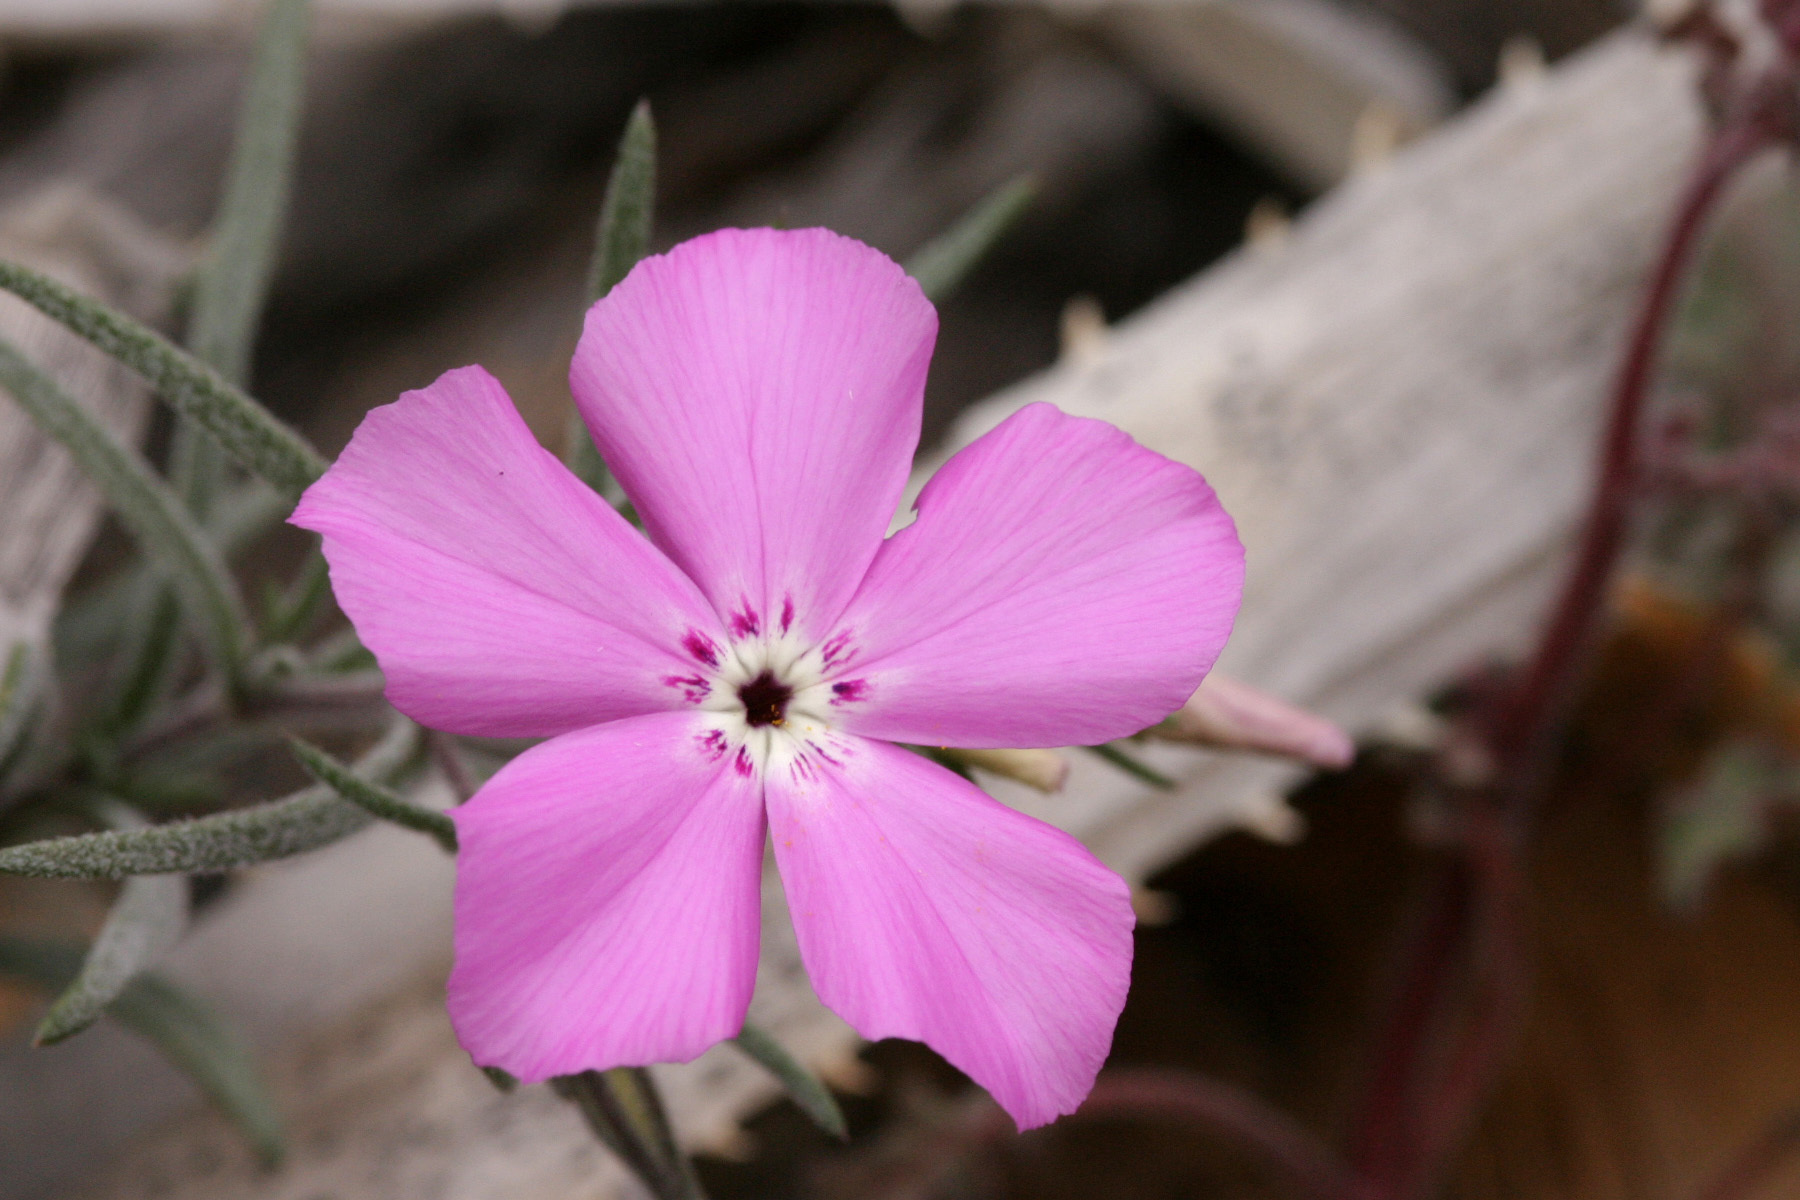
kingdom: Plantae
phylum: Tracheophyta
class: Magnoliopsida
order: Ericales
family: Polemoniaceae
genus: Phlox
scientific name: Phlox nana
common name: Santa fe phlox
